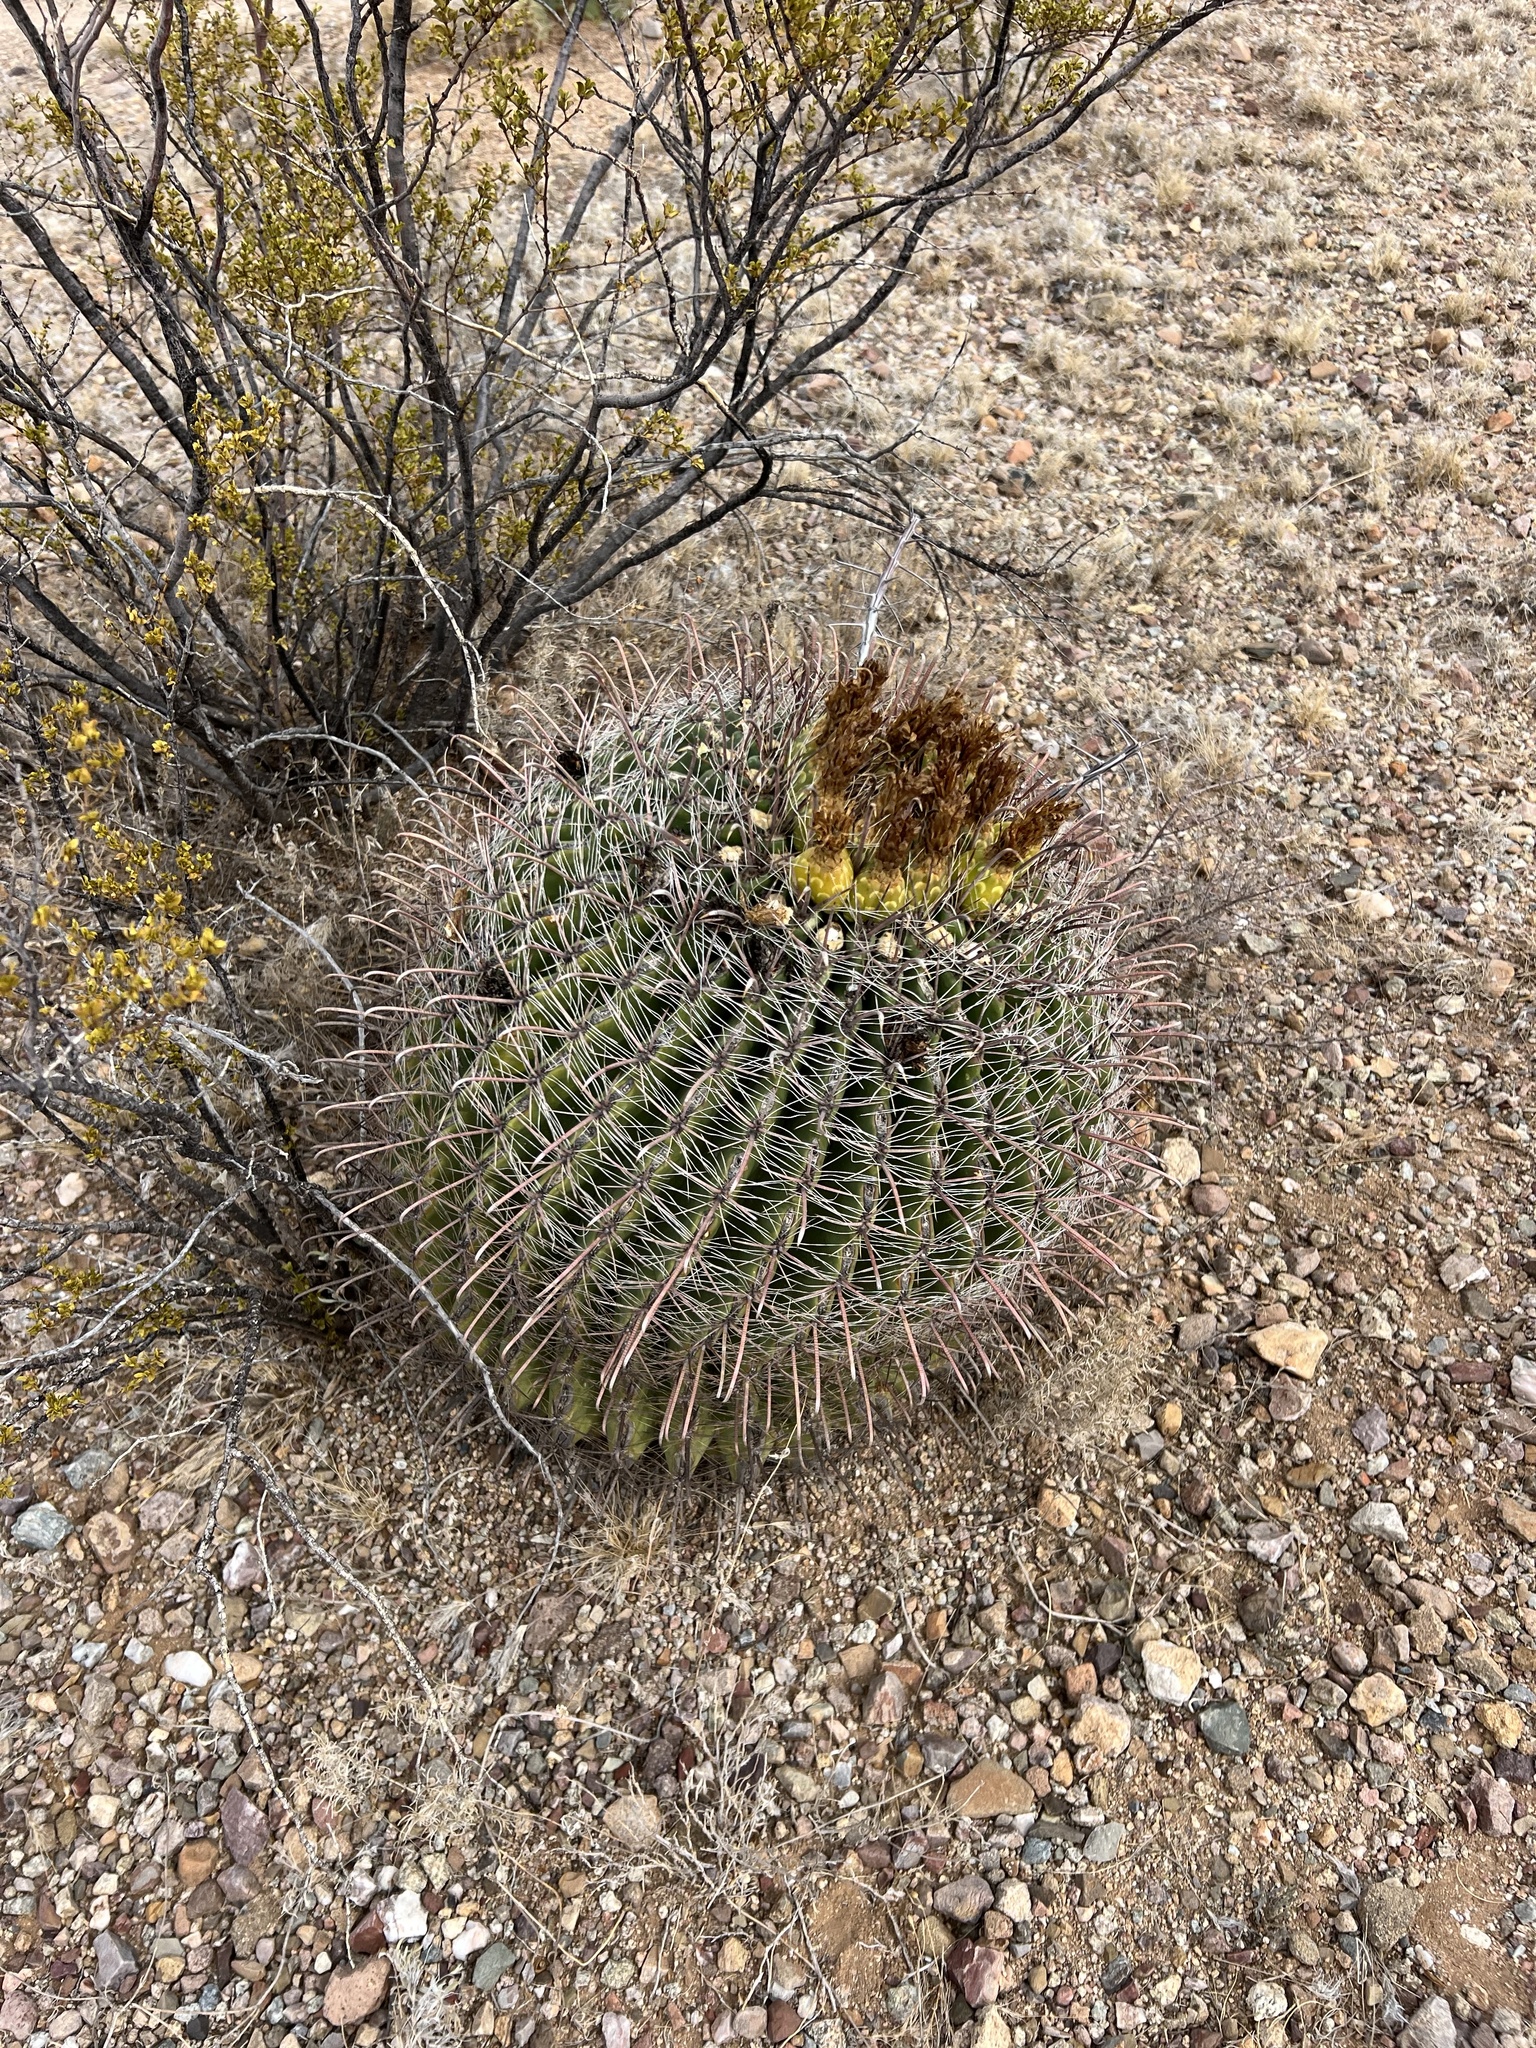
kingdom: Plantae
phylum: Tracheophyta
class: Magnoliopsida
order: Caryophyllales
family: Cactaceae
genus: Ferocactus
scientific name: Ferocactus wislizeni
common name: Candy barrel cactus
